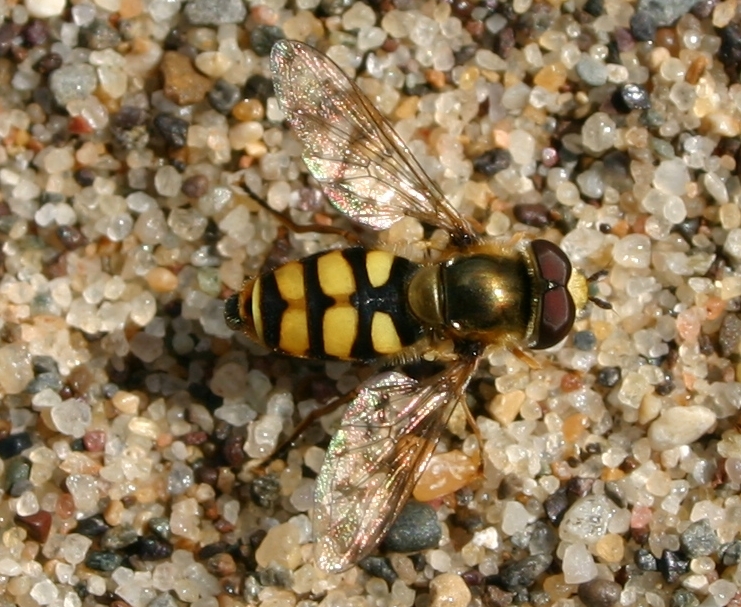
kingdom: Animalia
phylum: Arthropoda
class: Insecta
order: Diptera
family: Syrphidae
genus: Eupeodes
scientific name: Eupeodes corollae
